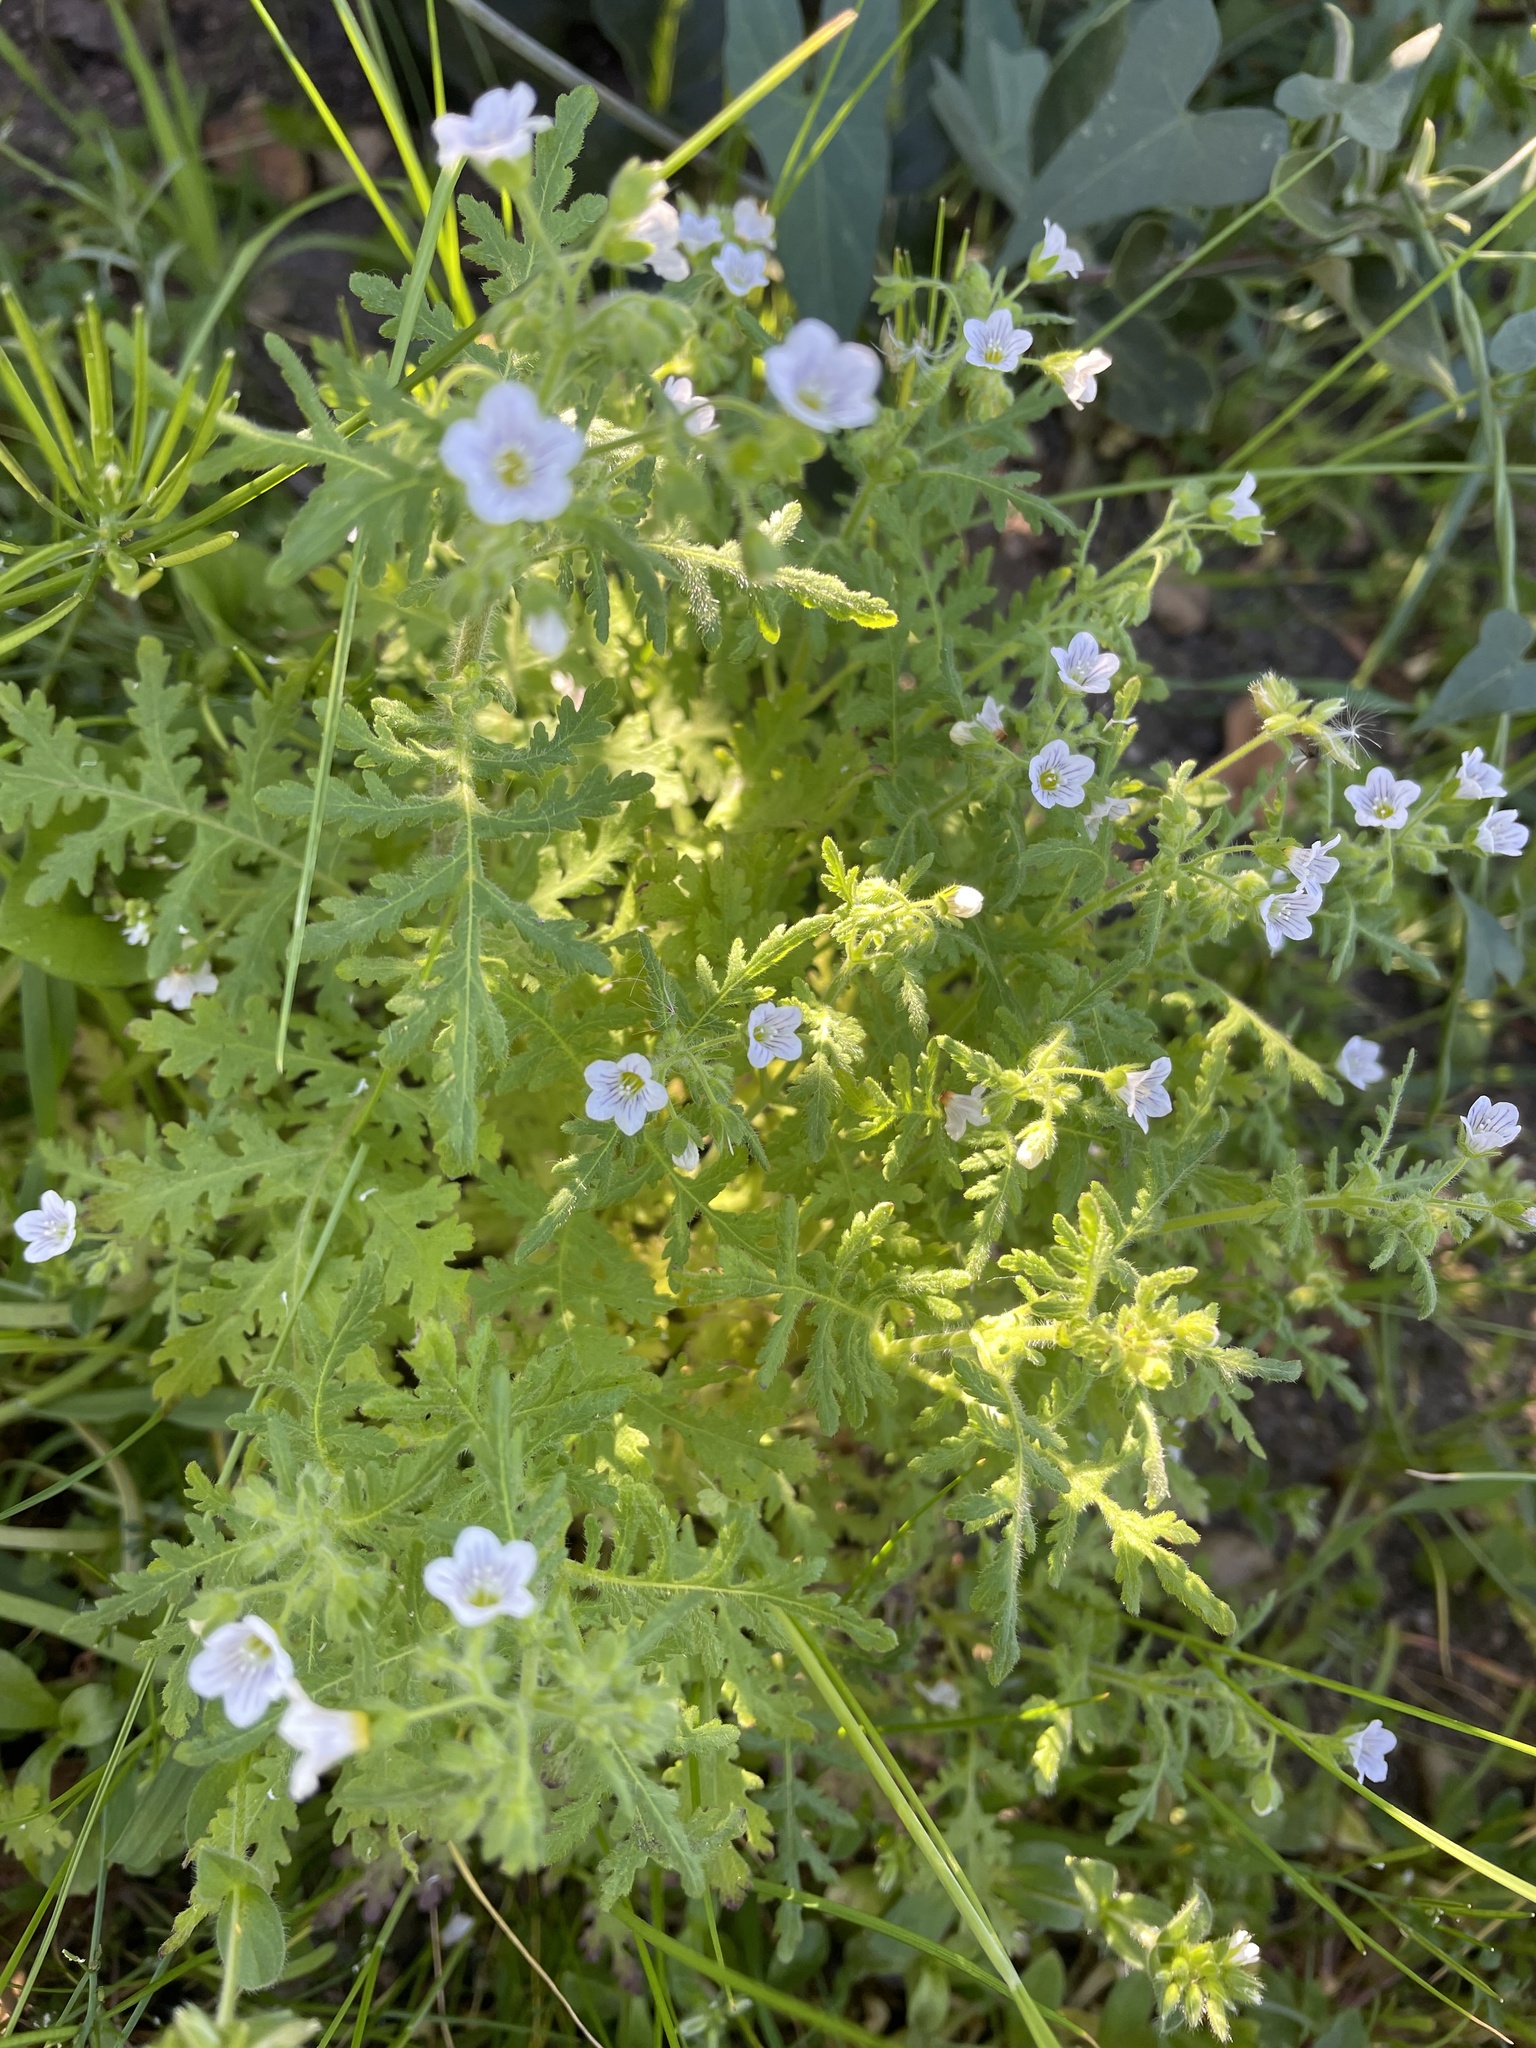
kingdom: Plantae
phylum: Tracheophyta
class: Magnoliopsida
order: Boraginales
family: Hydrophyllaceae
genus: Eucrypta
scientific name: Eucrypta chrysanthemifolia
